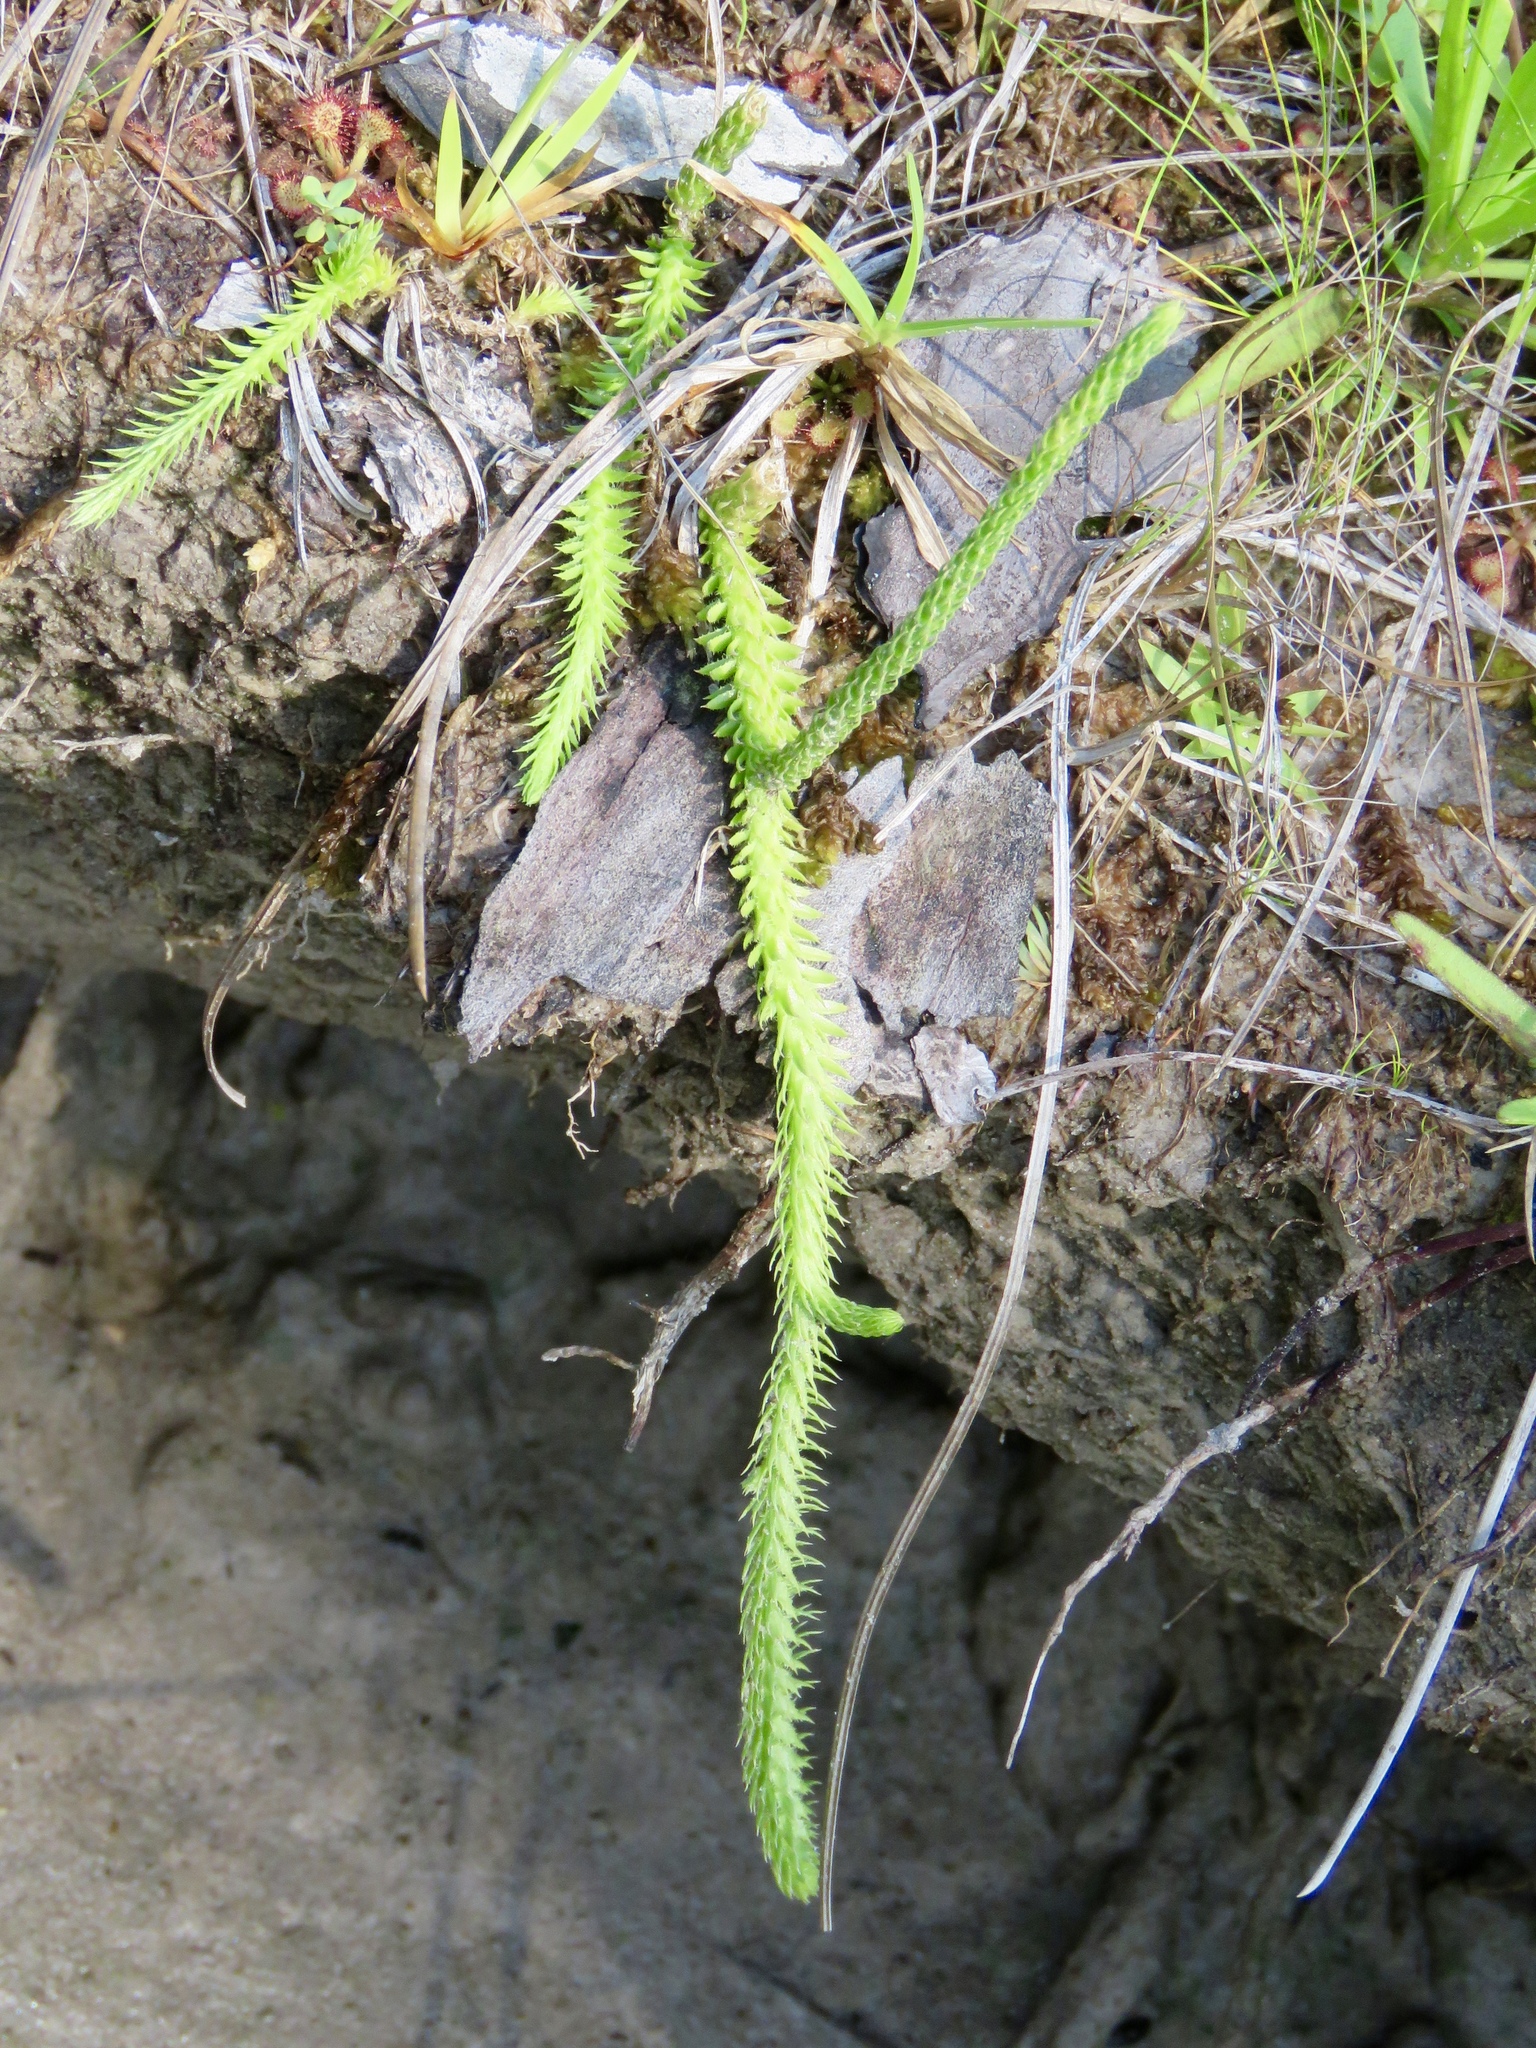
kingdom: Plantae
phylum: Tracheophyta
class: Lycopodiopsida
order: Lycopodiales
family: Lycopodiaceae
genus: Lycopodiella
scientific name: Lycopodiella appressa
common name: Appressed bog clubmoss
